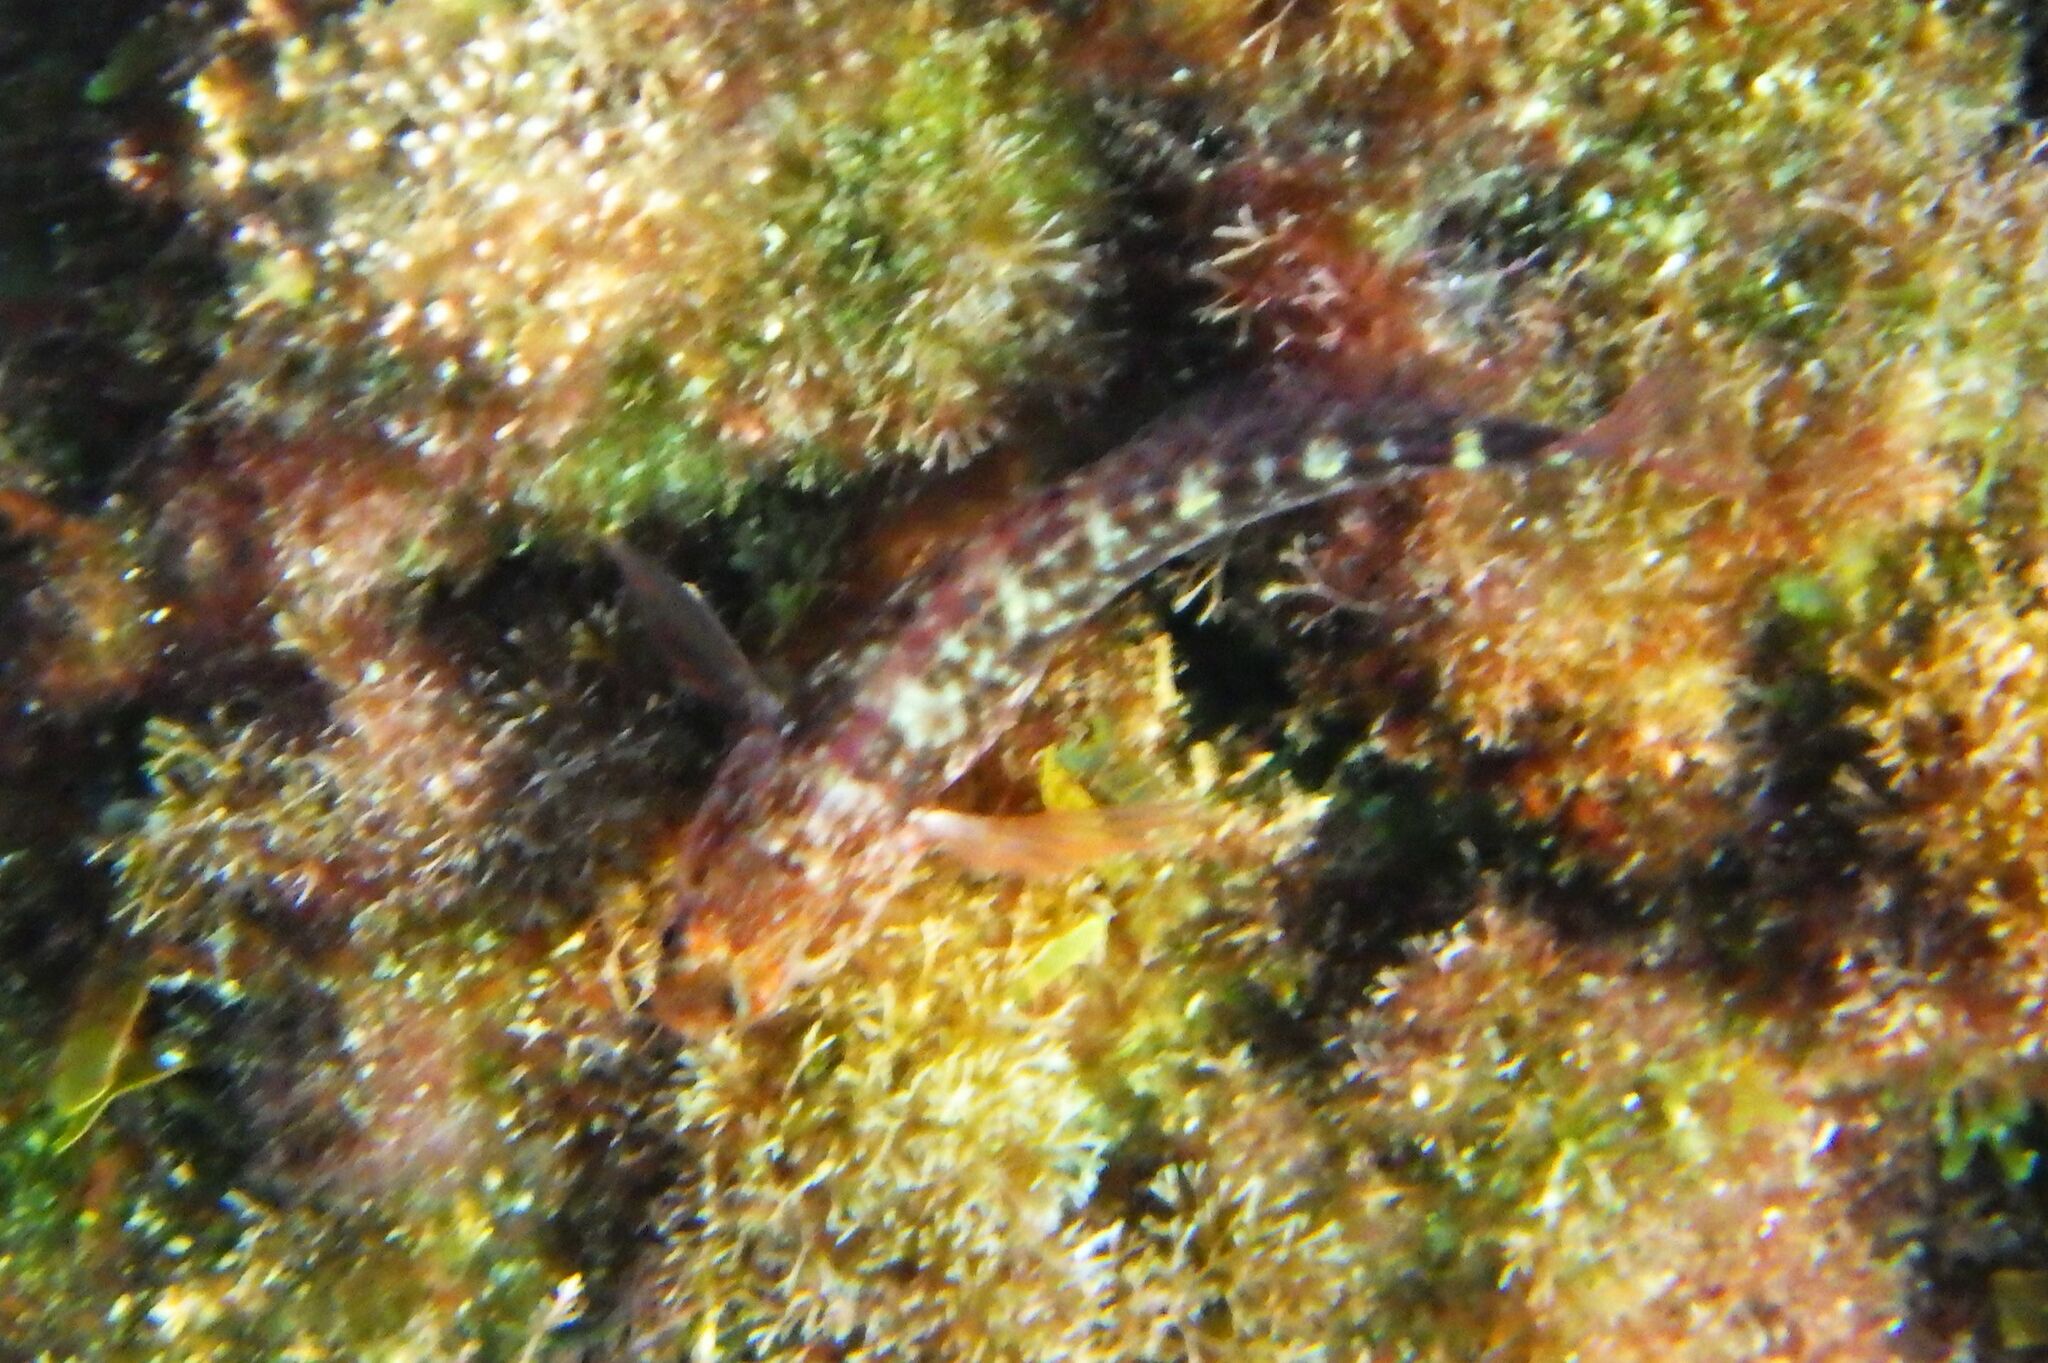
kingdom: Animalia
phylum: Chordata
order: Perciformes
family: Blenniidae
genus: Parablennius
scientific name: Parablennius zvonimiri
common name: Red blenny
